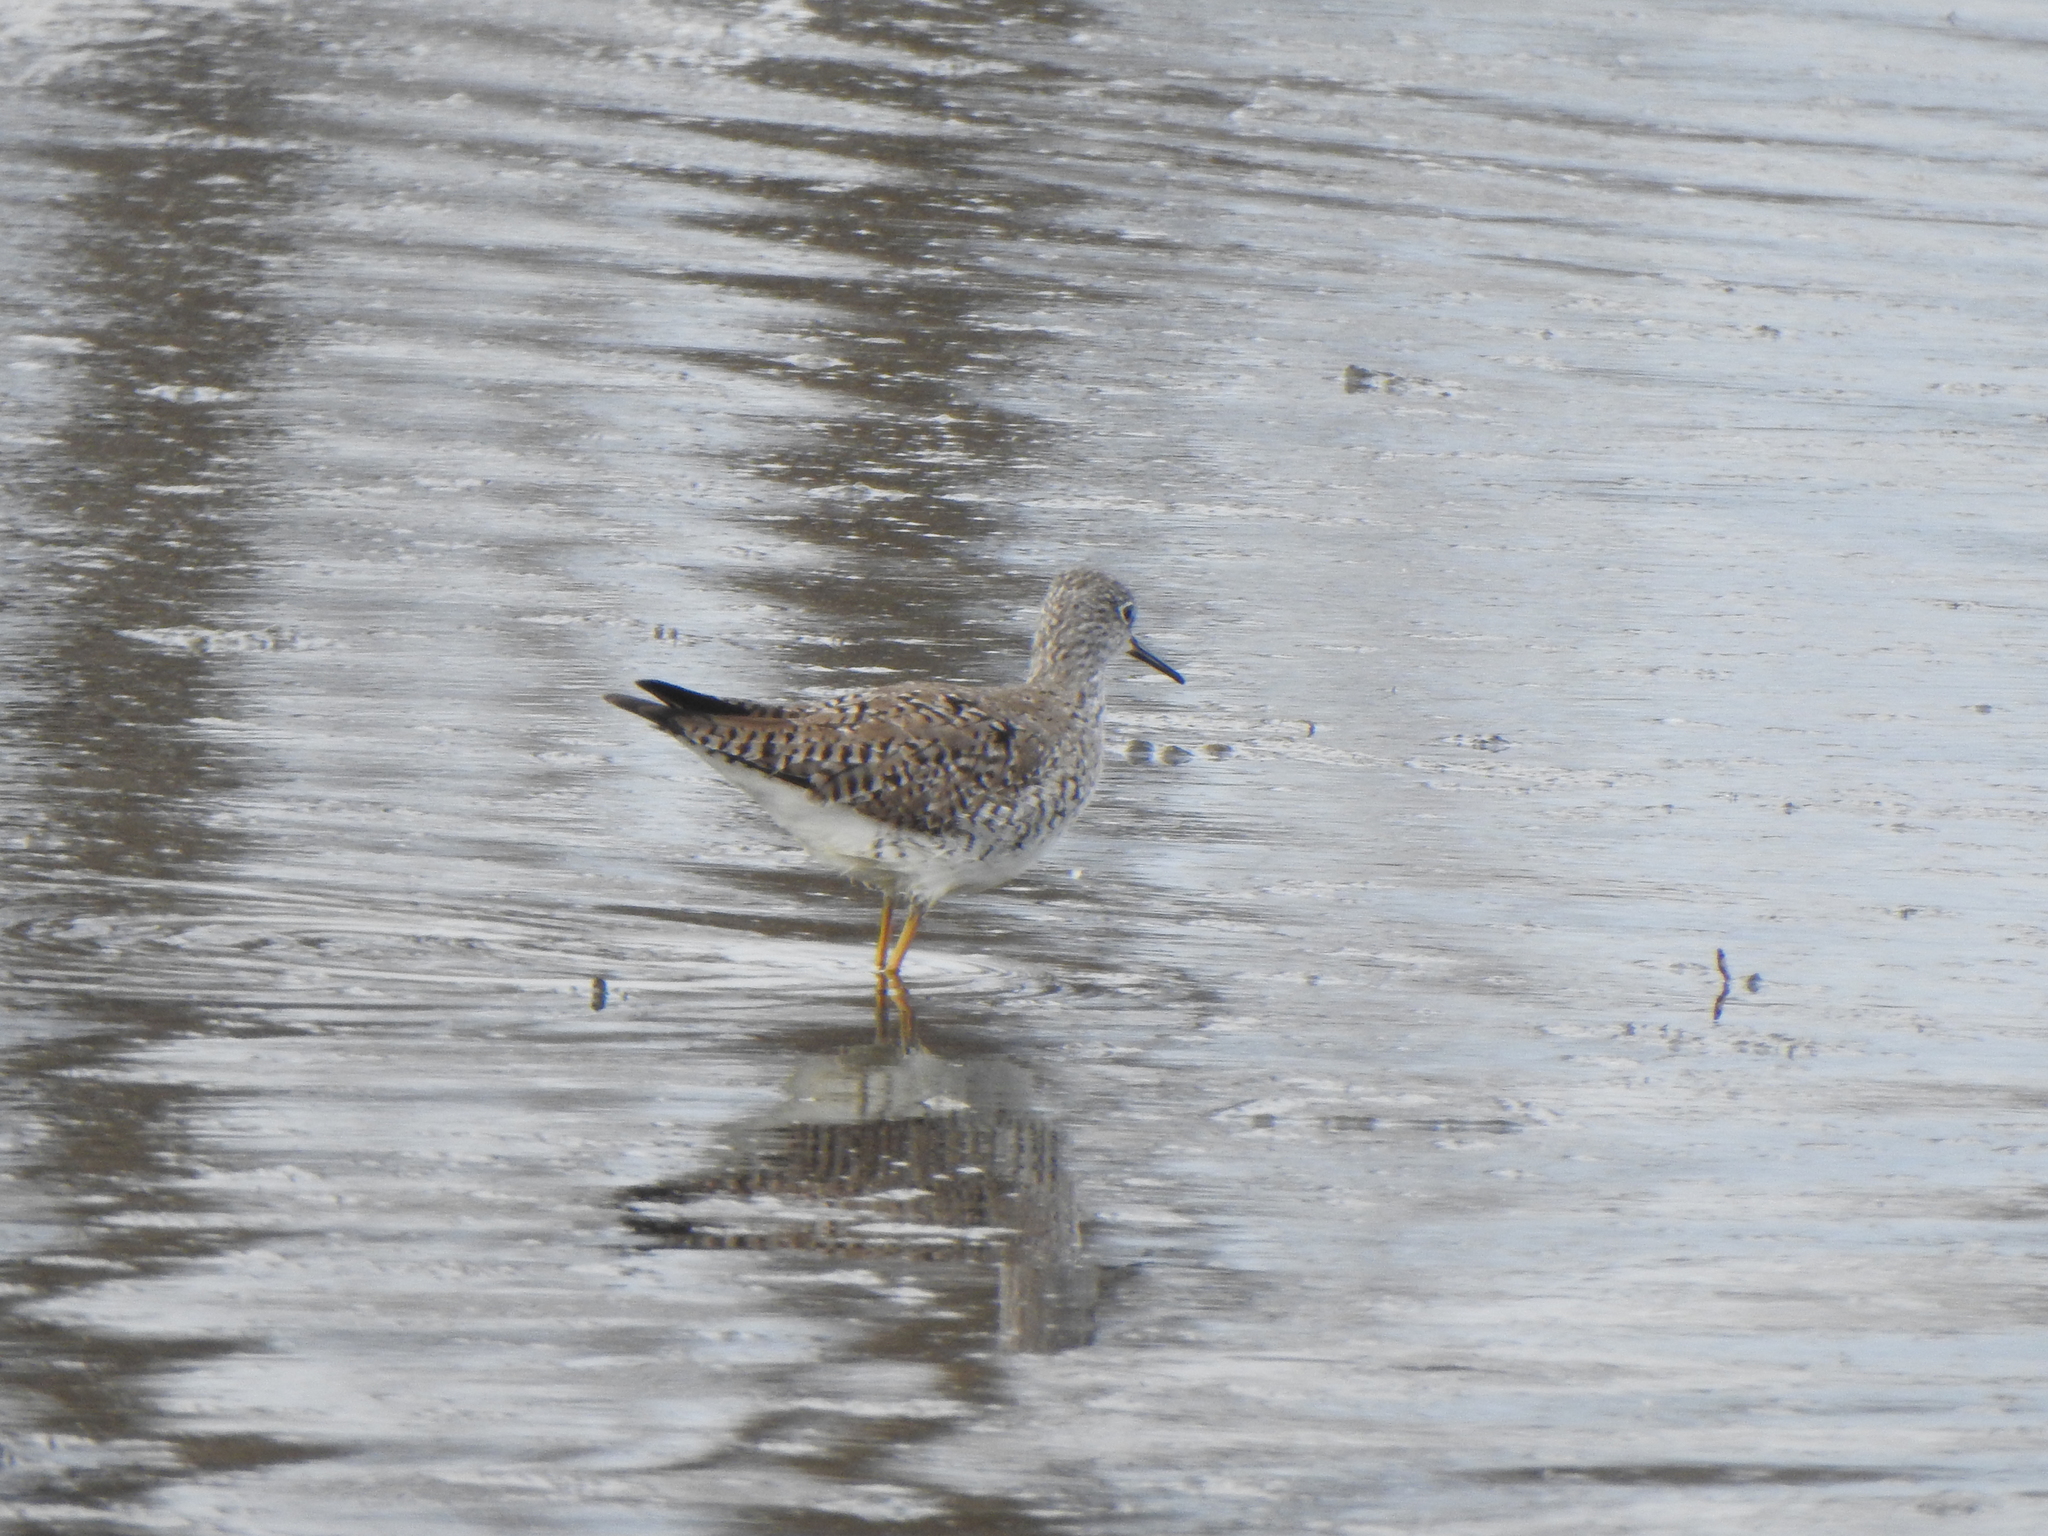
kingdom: Animalia
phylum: Chordata
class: Aves
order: Charadriiformes
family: Scolopacidae
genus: Tringa
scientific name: Tringa flavipes
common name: Lesser yellowlegs
